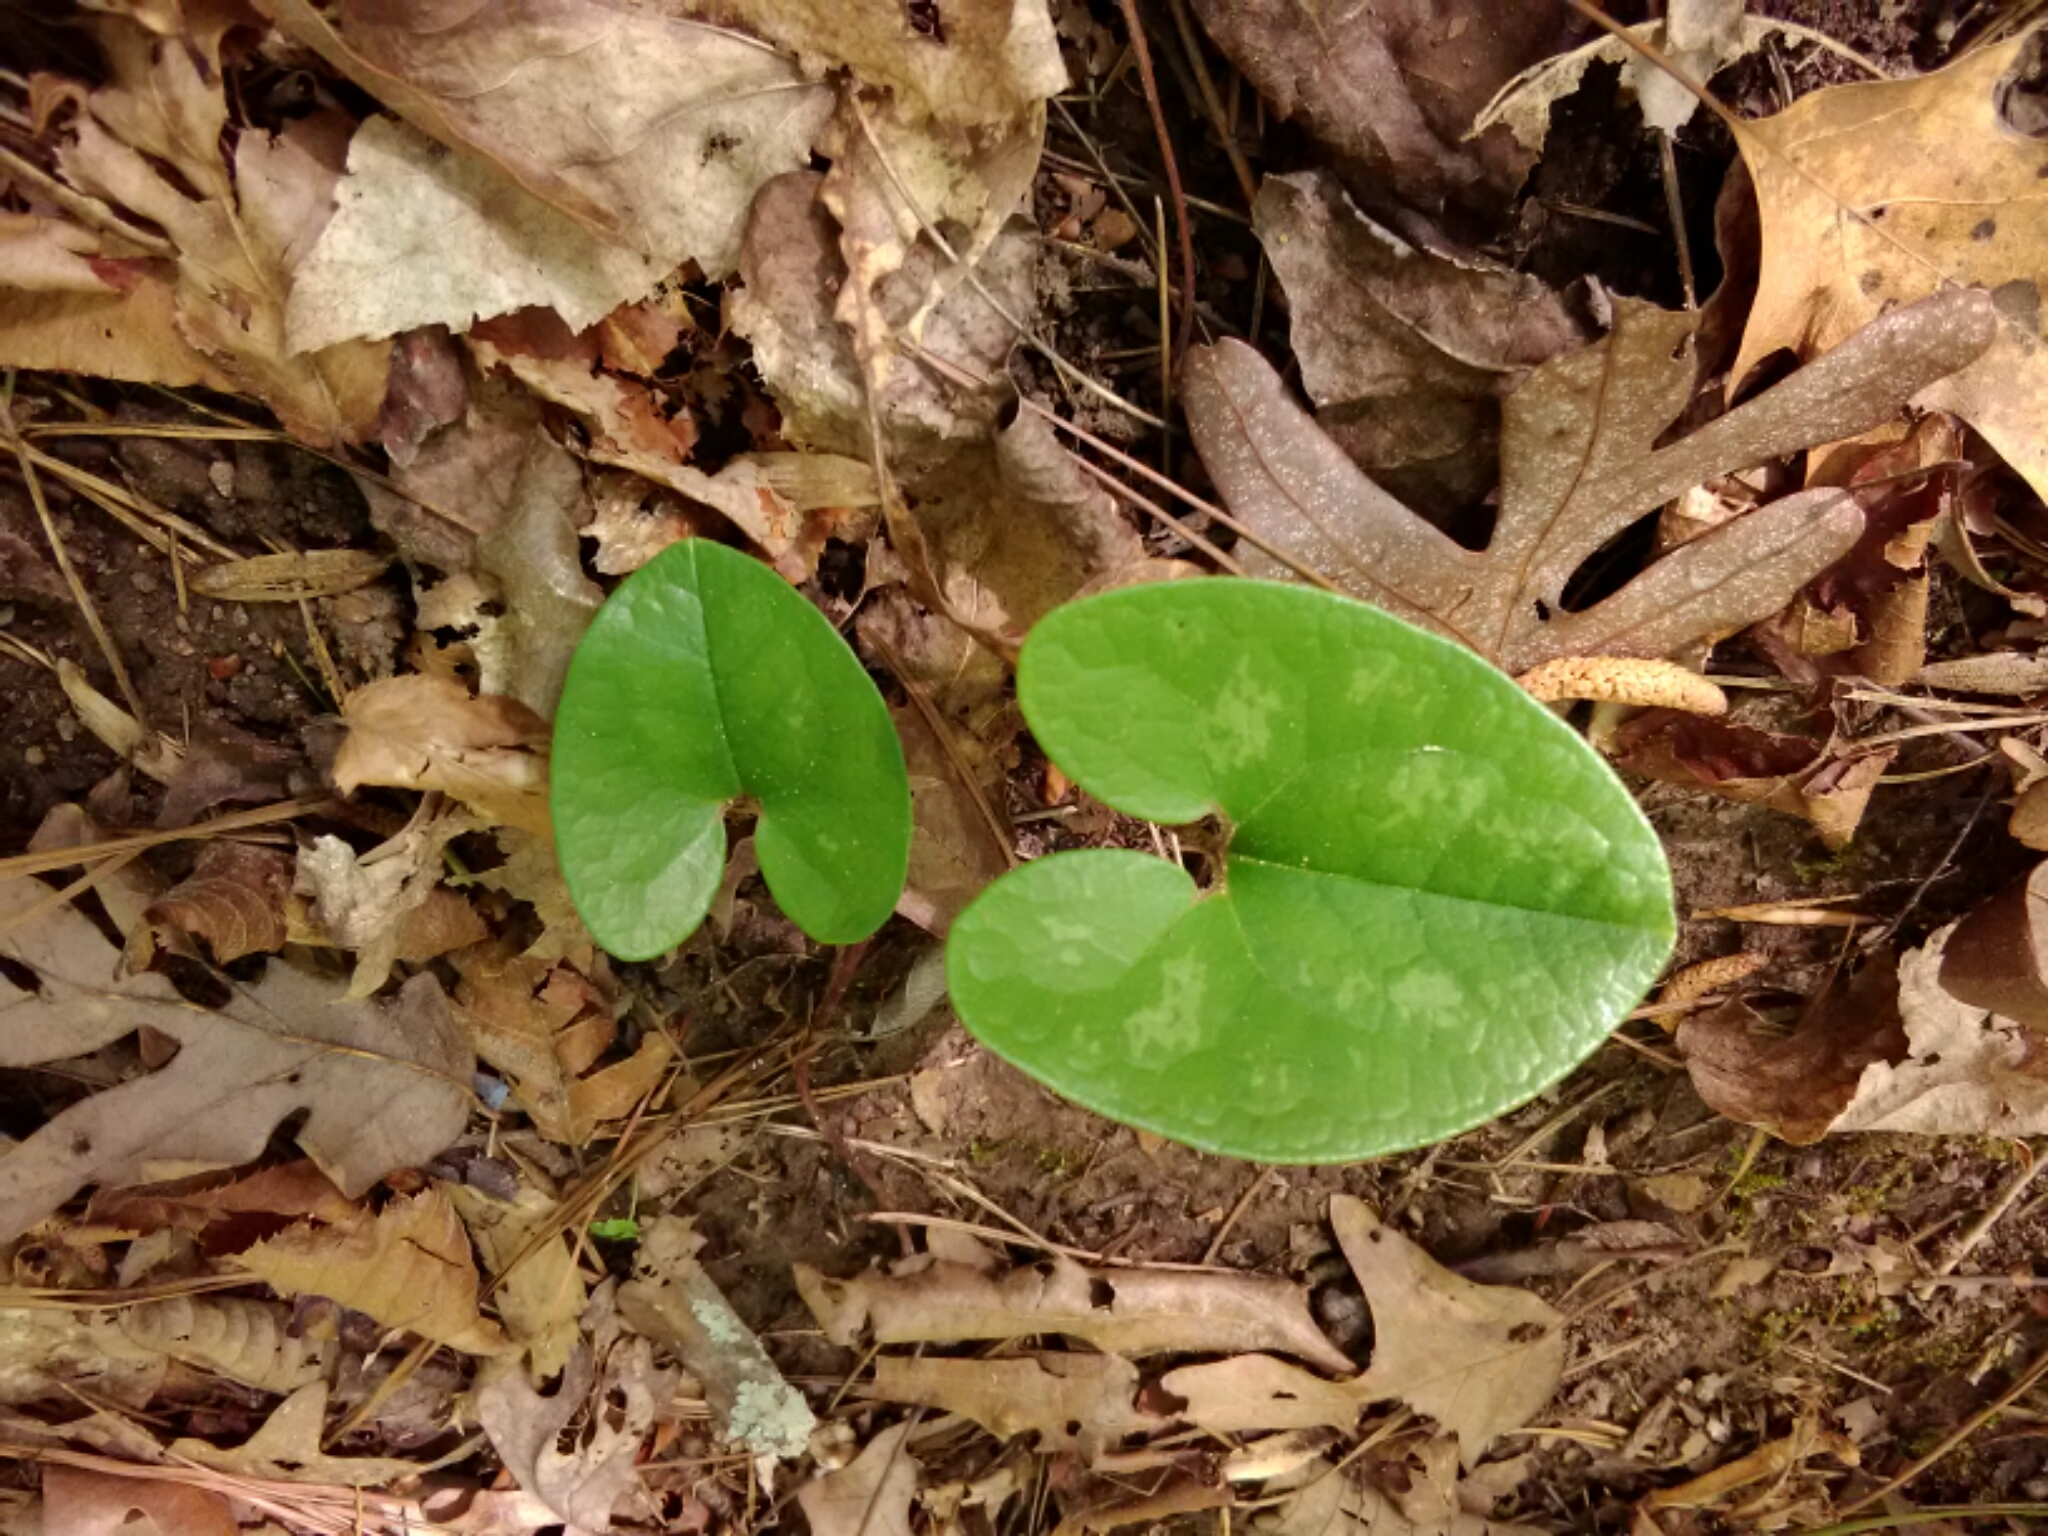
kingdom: Plantae
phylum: Tracheophyta
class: Magnoliopsida
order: Piperales
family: Aristolochiaceae
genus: Hexastylis
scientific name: Hexastylis arifolia
